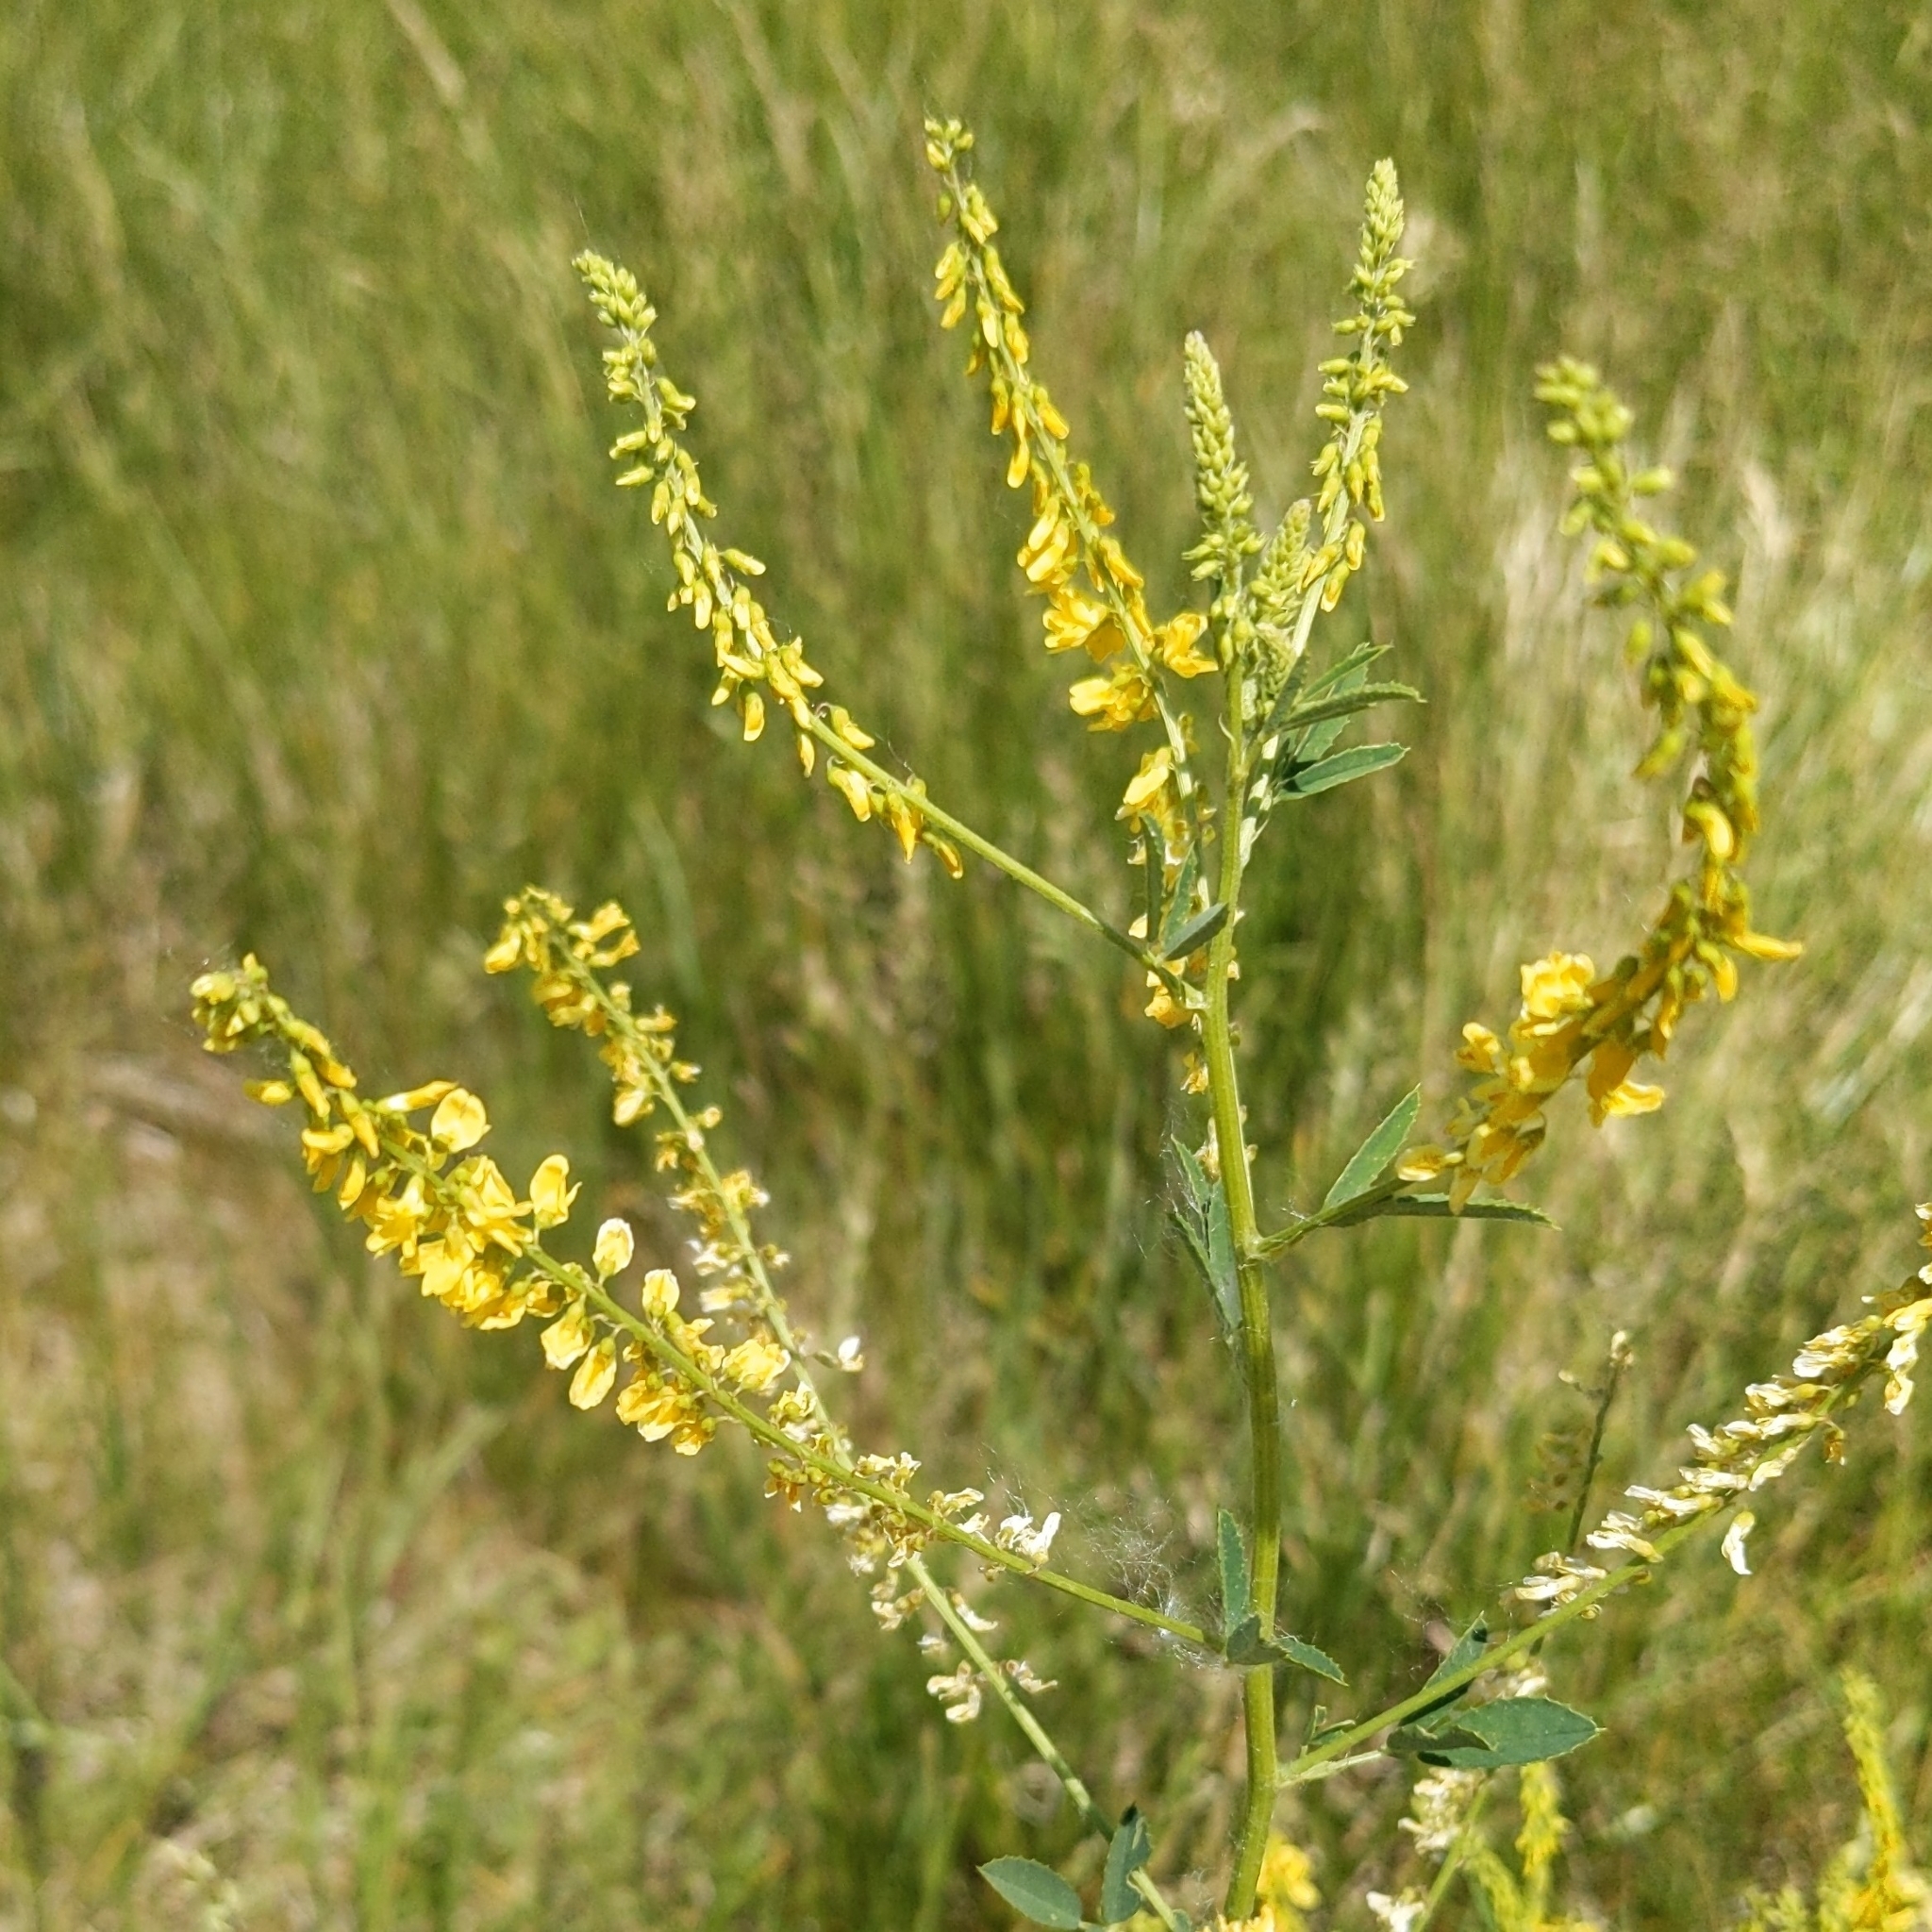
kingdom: Plantae
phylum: Tracheophyta
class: Magnoliopsida
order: Fabales
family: Fabaceae
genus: Melilotus
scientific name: Melilotus officinalis
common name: Sweetclover
